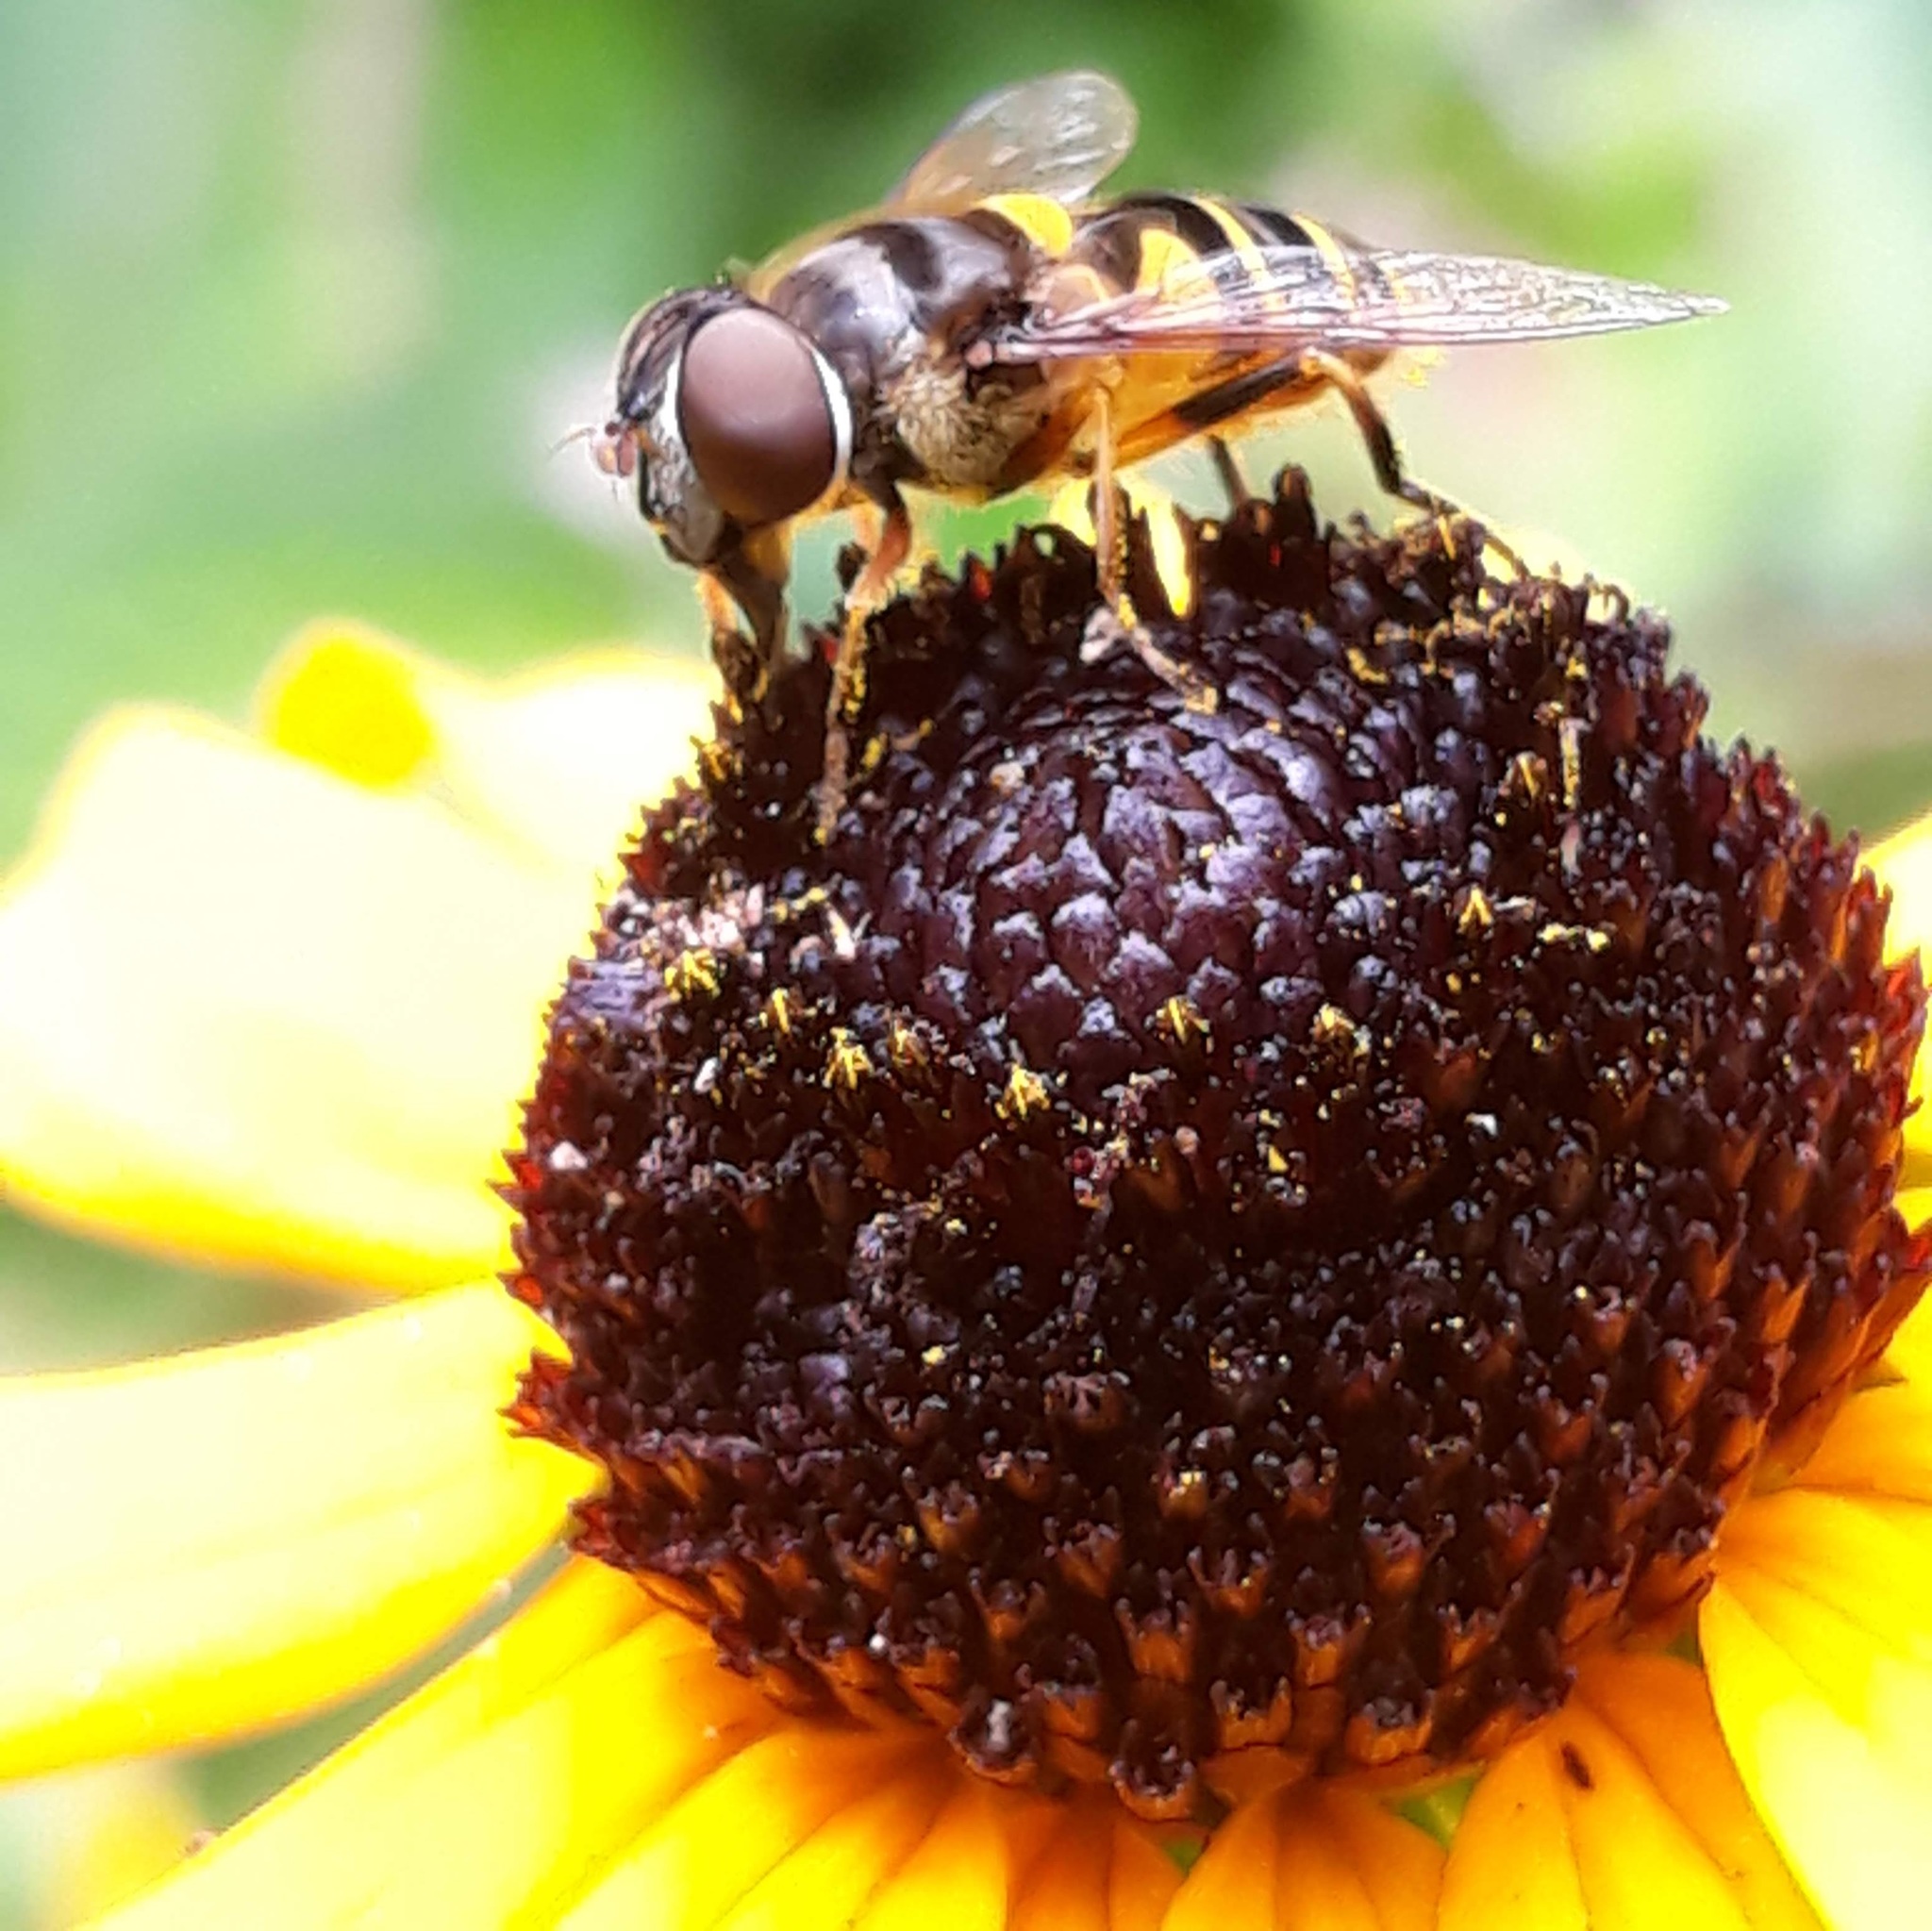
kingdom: Animalia
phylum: Arthropoda
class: Insecta
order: Diptera
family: Syrphidae
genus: Eristalis
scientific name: Eristalis transversa
